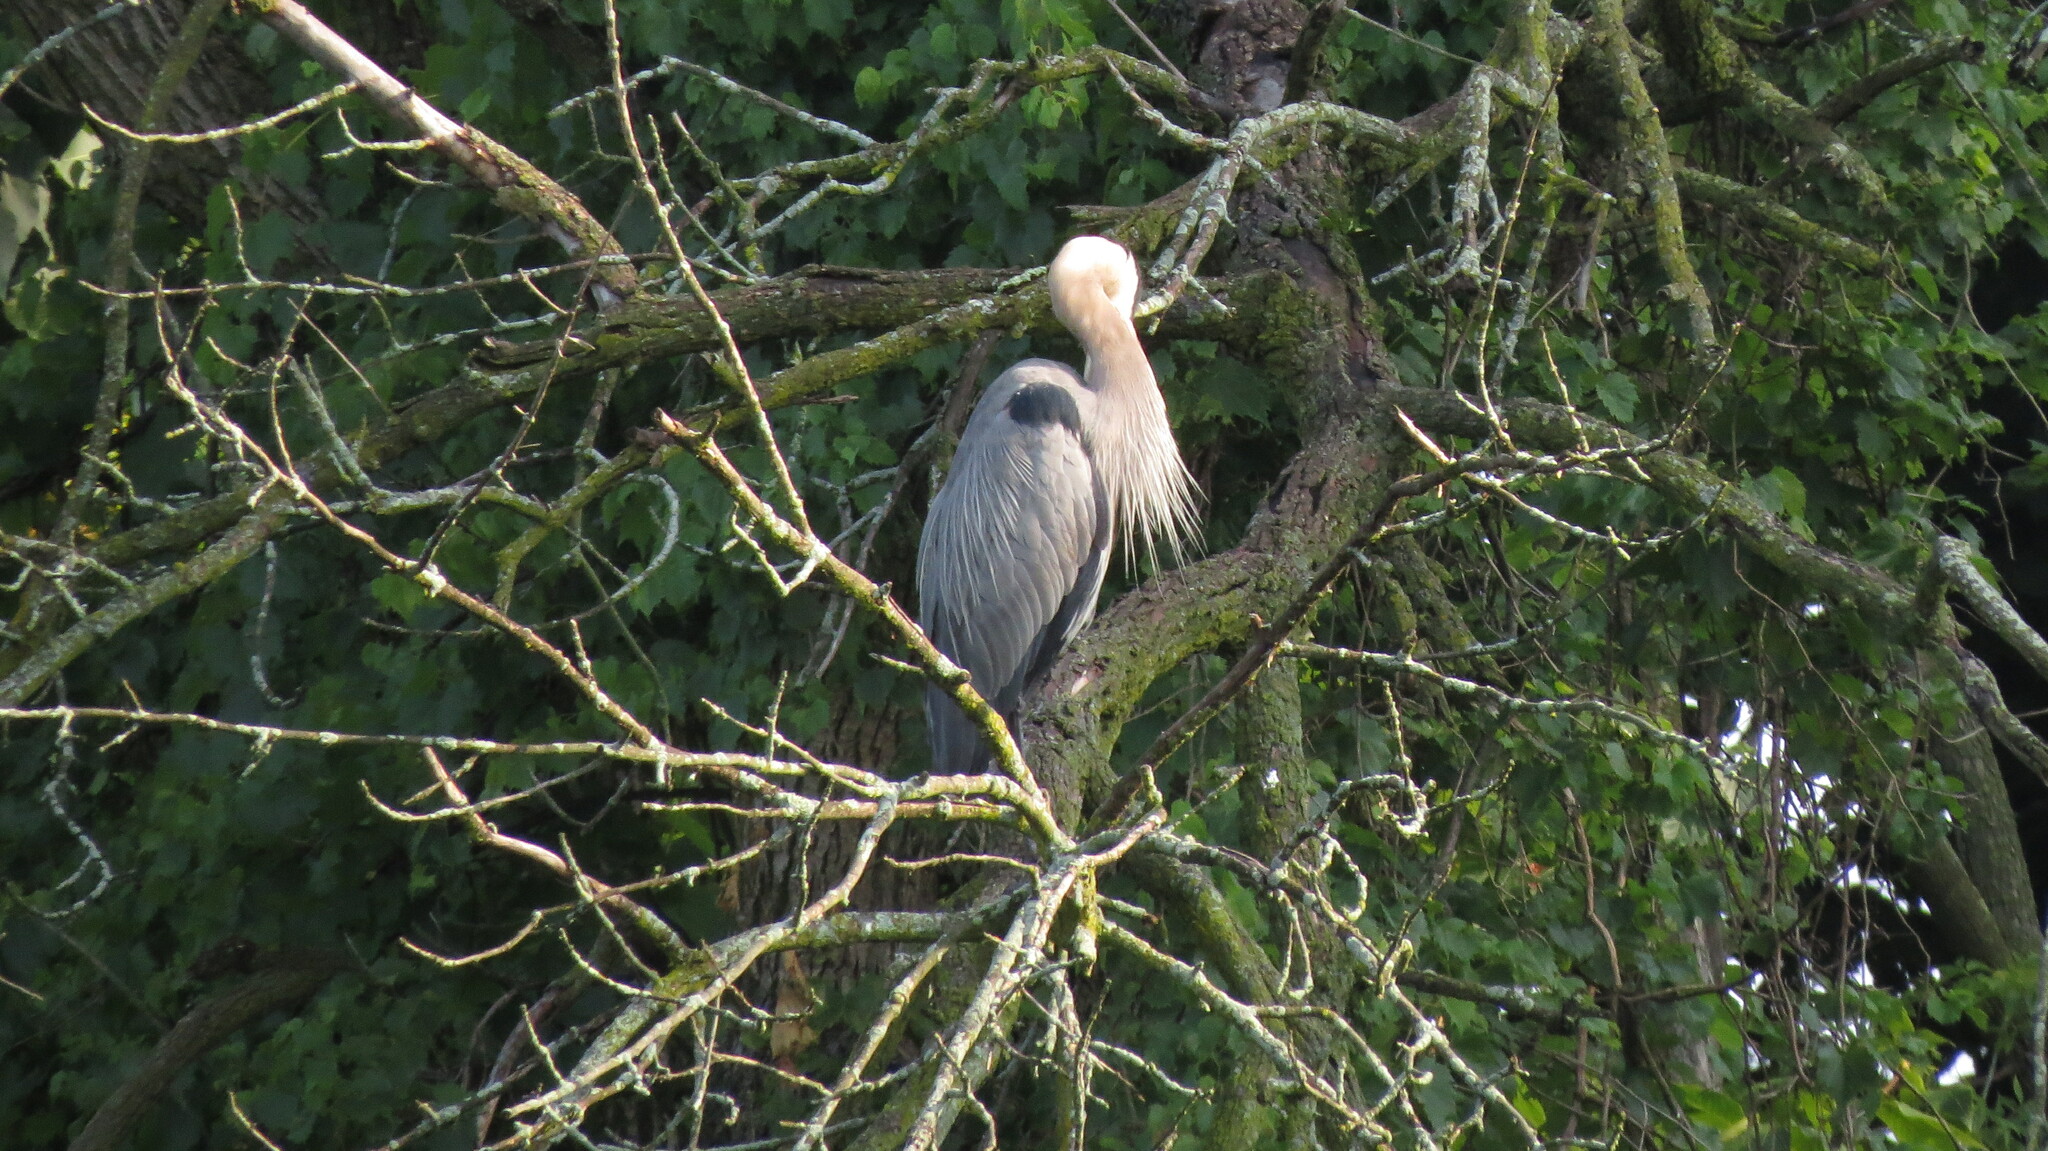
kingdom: Animalia
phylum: Chordata
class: Aves
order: Pelecaniformes
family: Ardeidae
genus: Ardea
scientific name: Ardea herodias
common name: Great blue heron
